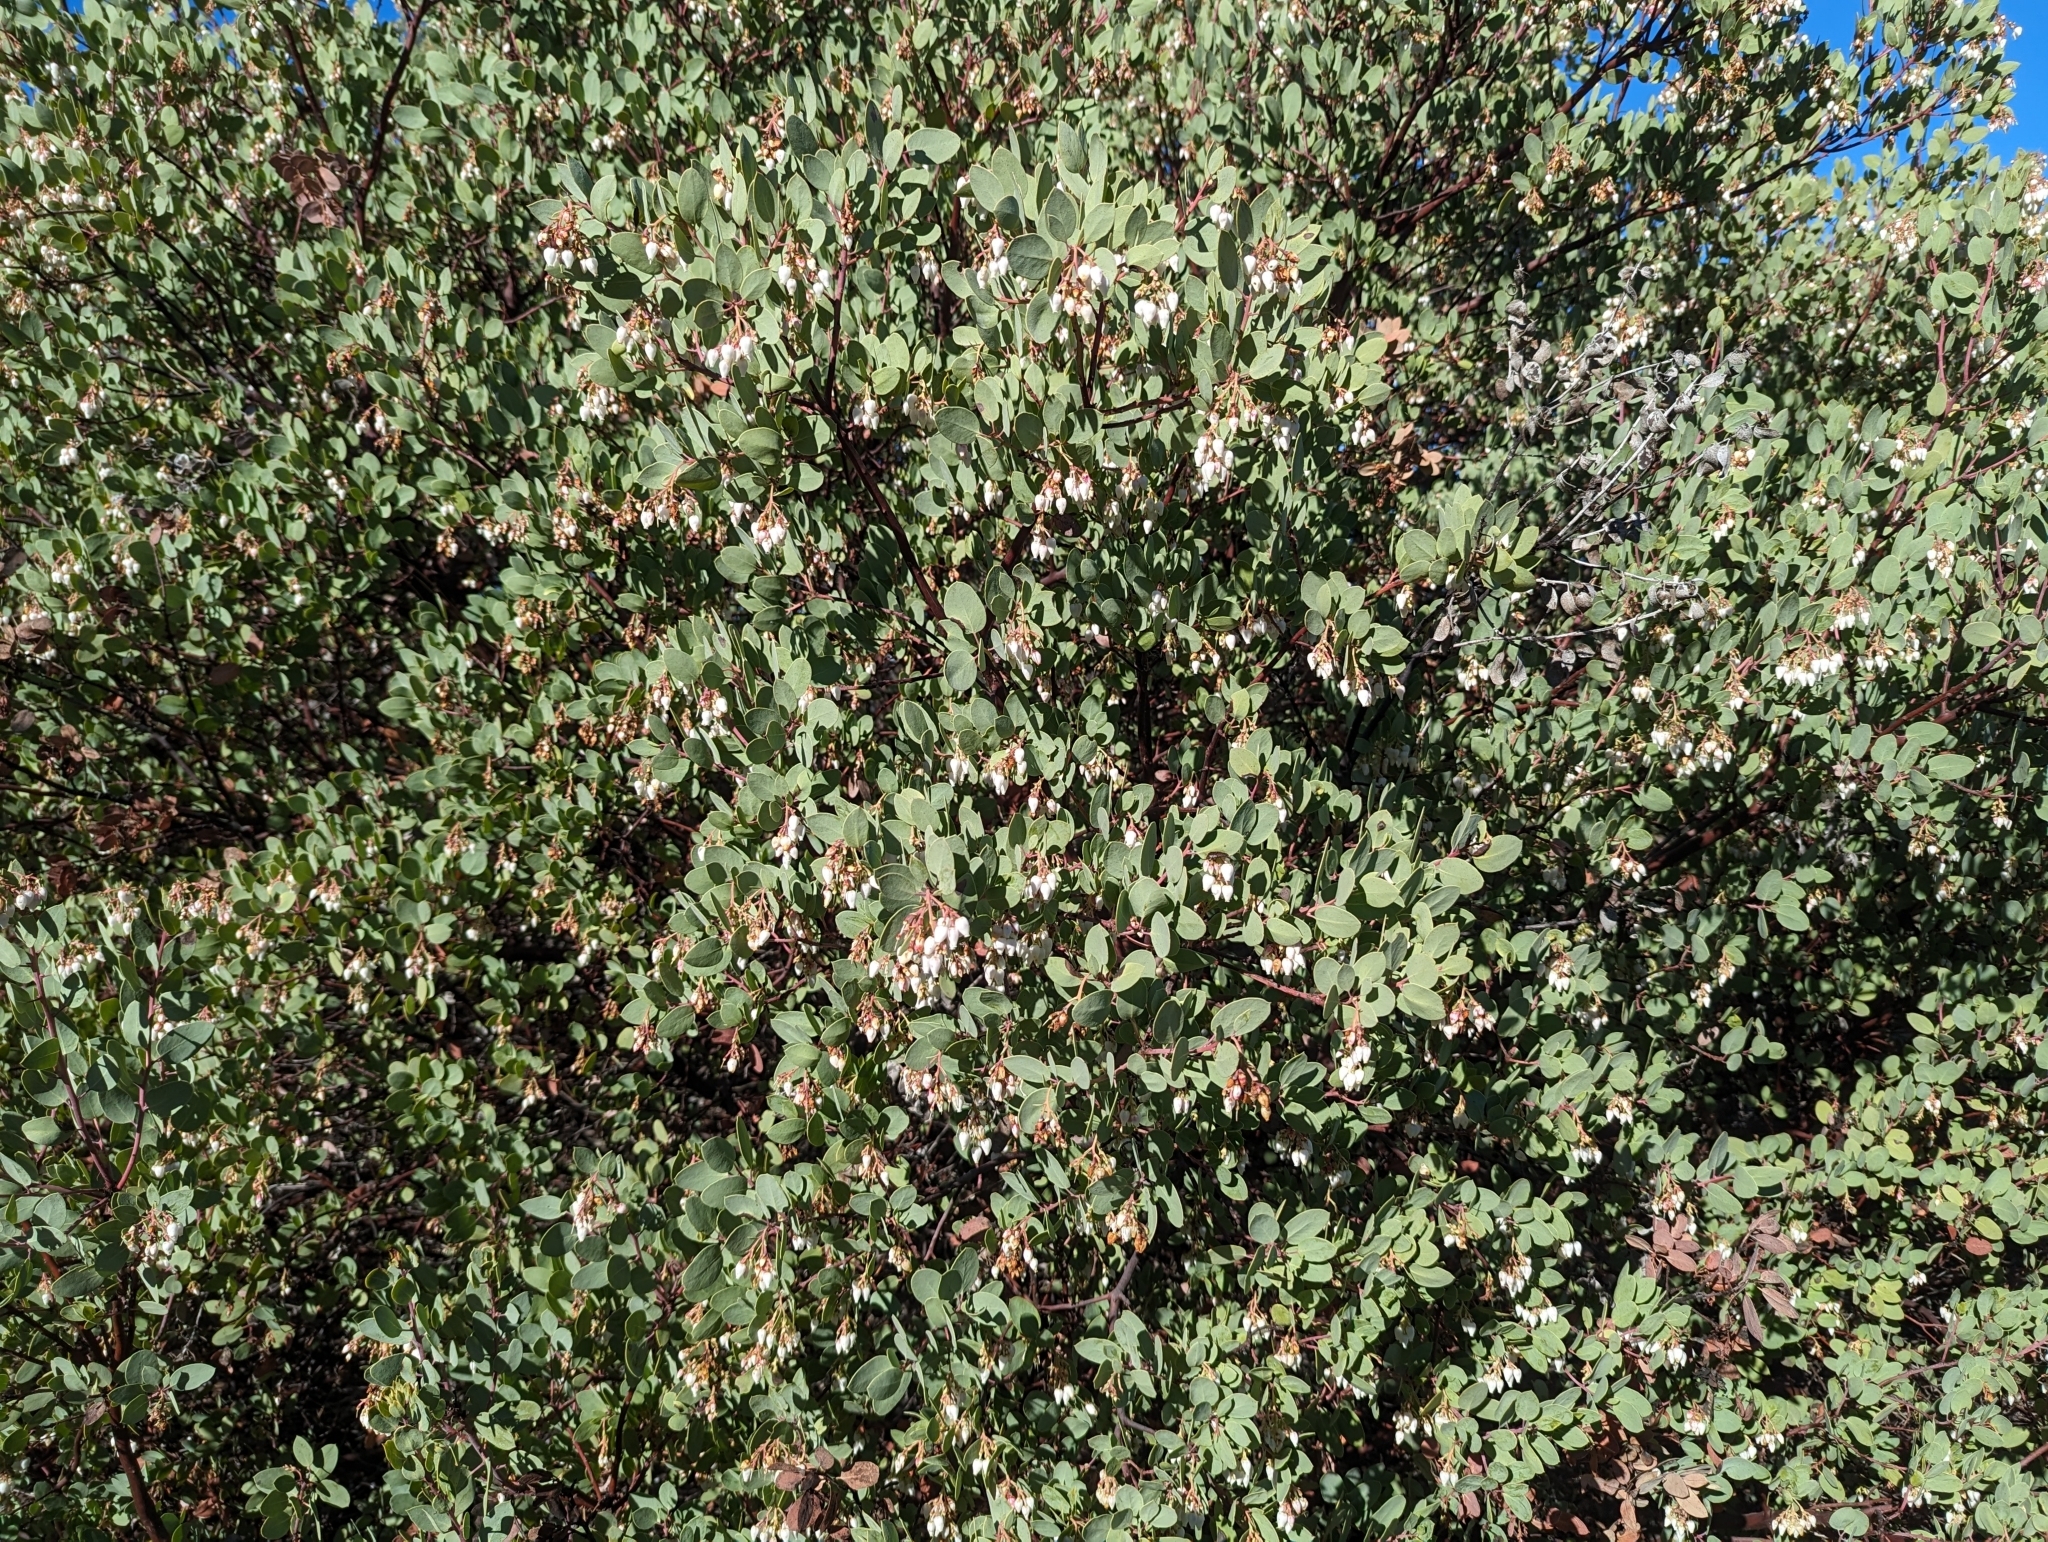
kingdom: Plantae
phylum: Tracheophyta
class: Magnoliopsida
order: Ericales
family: Ericaceae
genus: Arctostaphylos
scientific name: Arctostaphylos glauca
